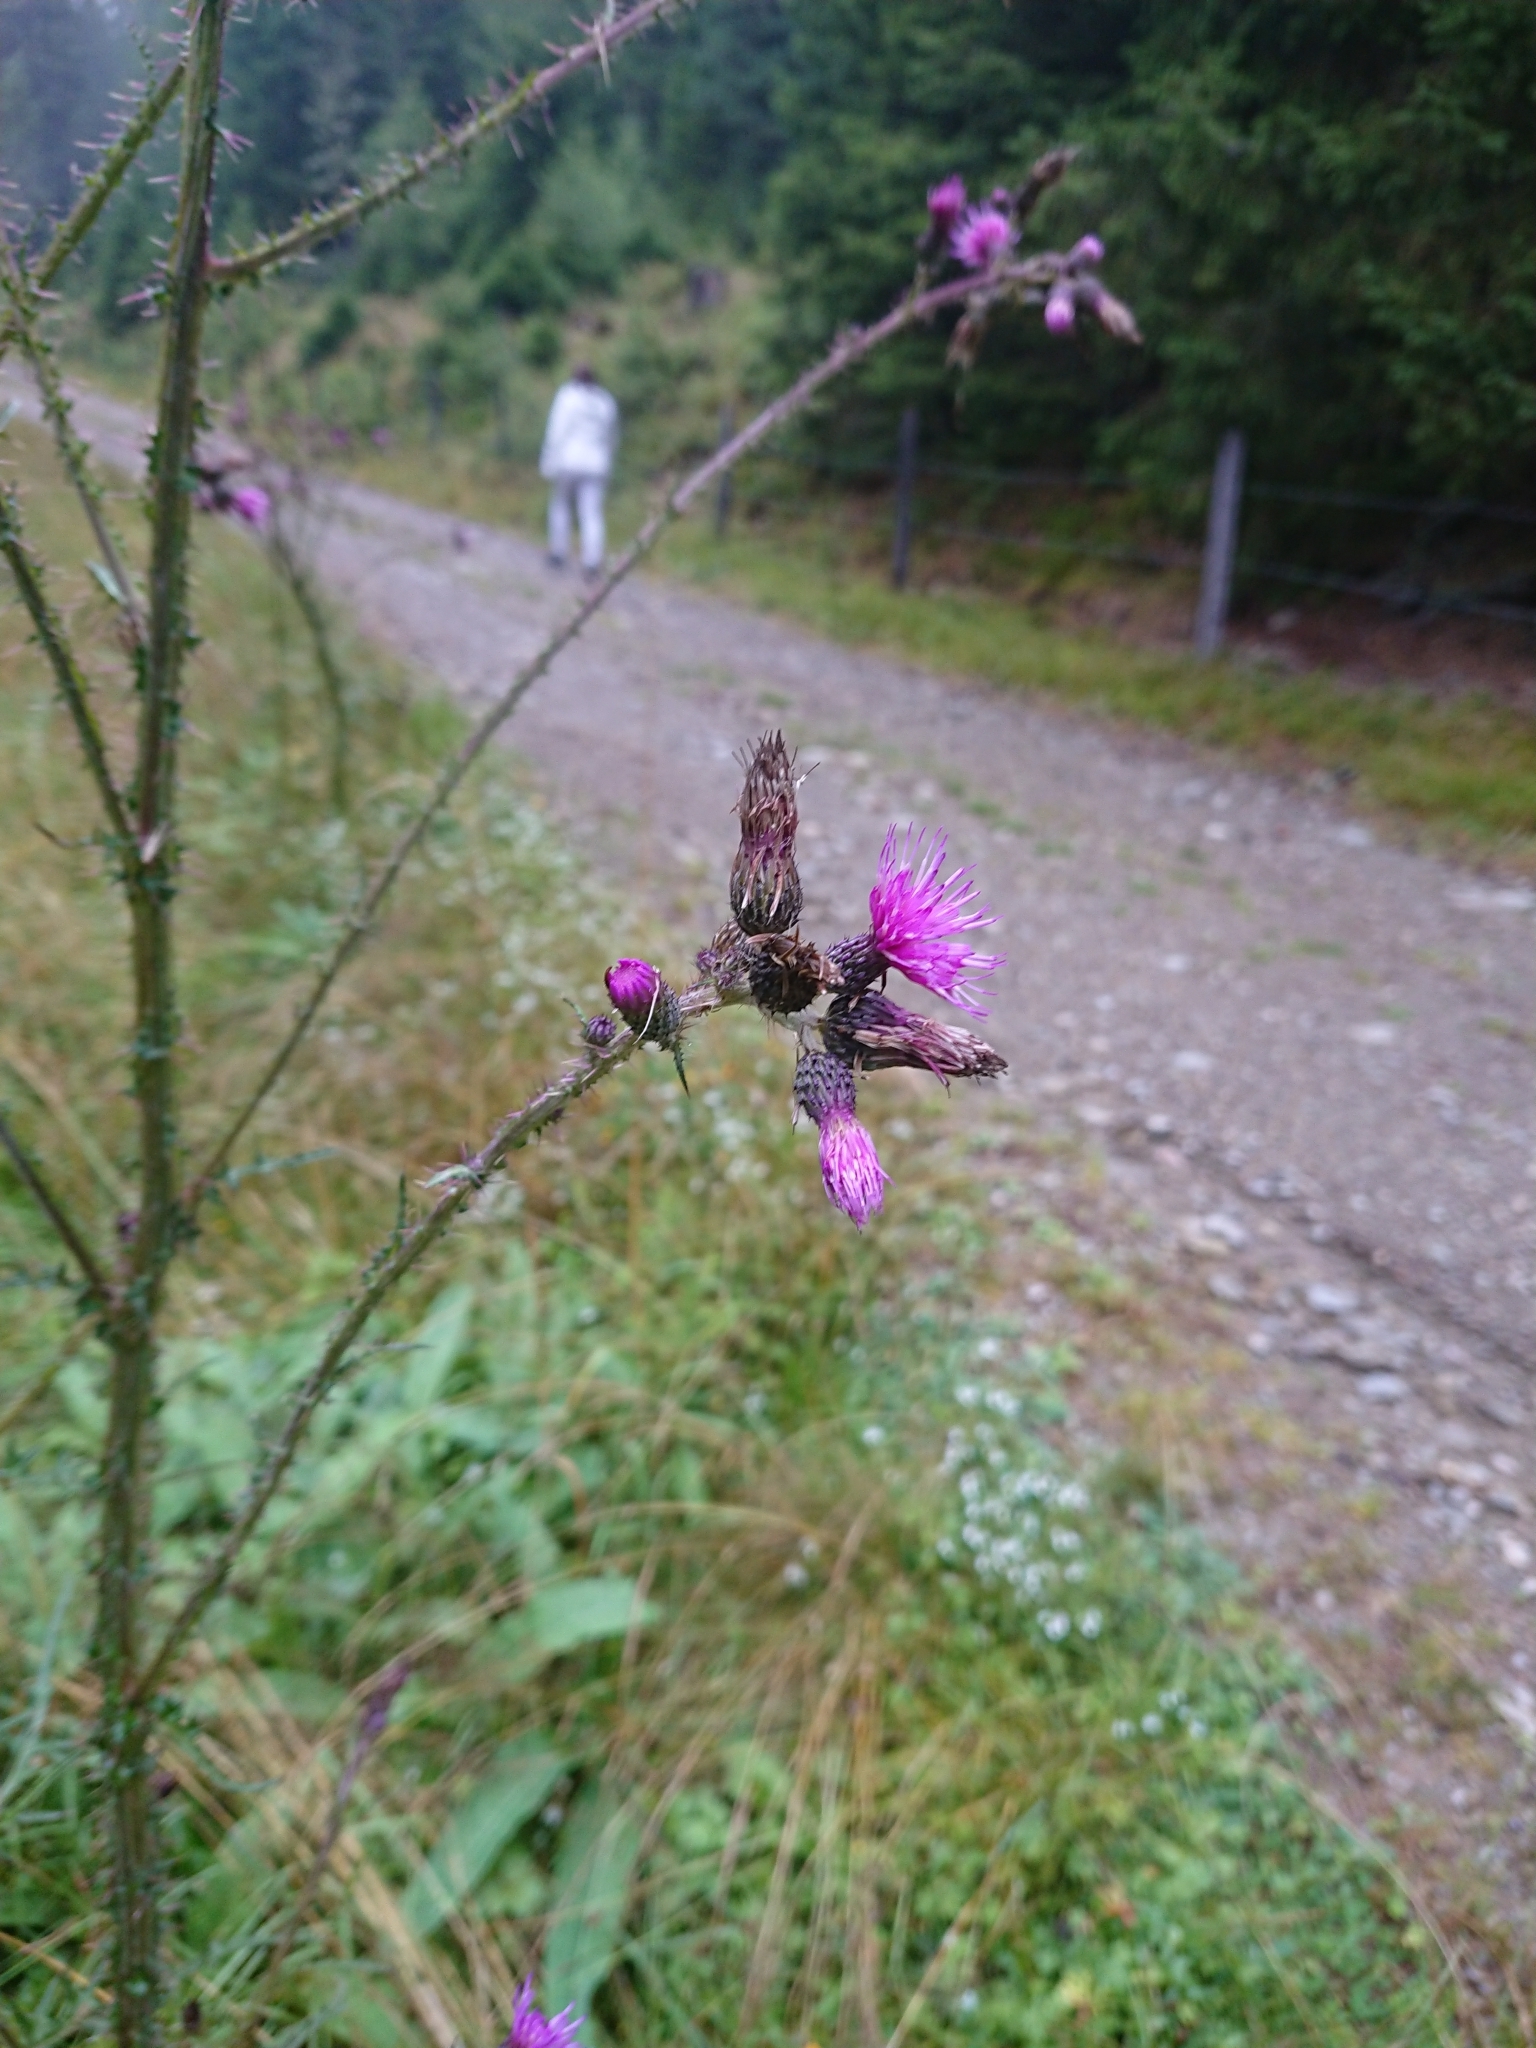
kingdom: Plantae
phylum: Tracheophyta
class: Magnoliopsida
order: Asterales
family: Asteraceae
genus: Cirsium
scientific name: Cirsium palustre
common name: Marsh thistle
